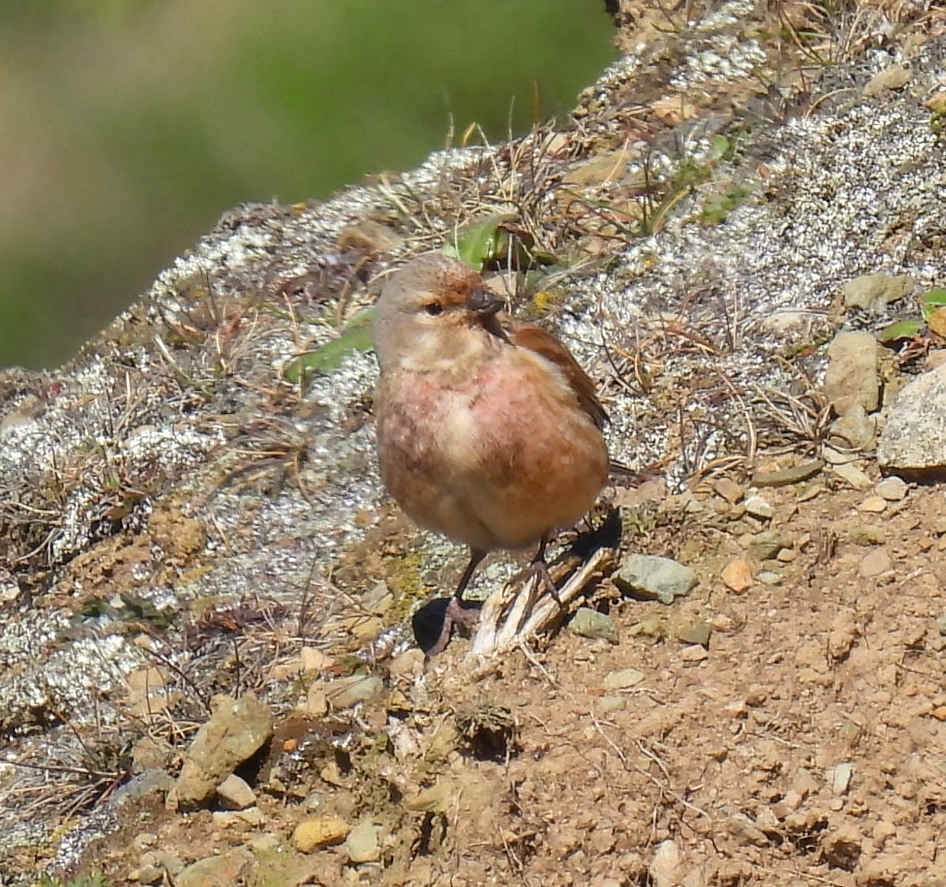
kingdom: Animalia
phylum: Chordata
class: Aves
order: Passeriformes
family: Fringillidae
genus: Linaria
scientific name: Linaria cannabina
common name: Common linnet
